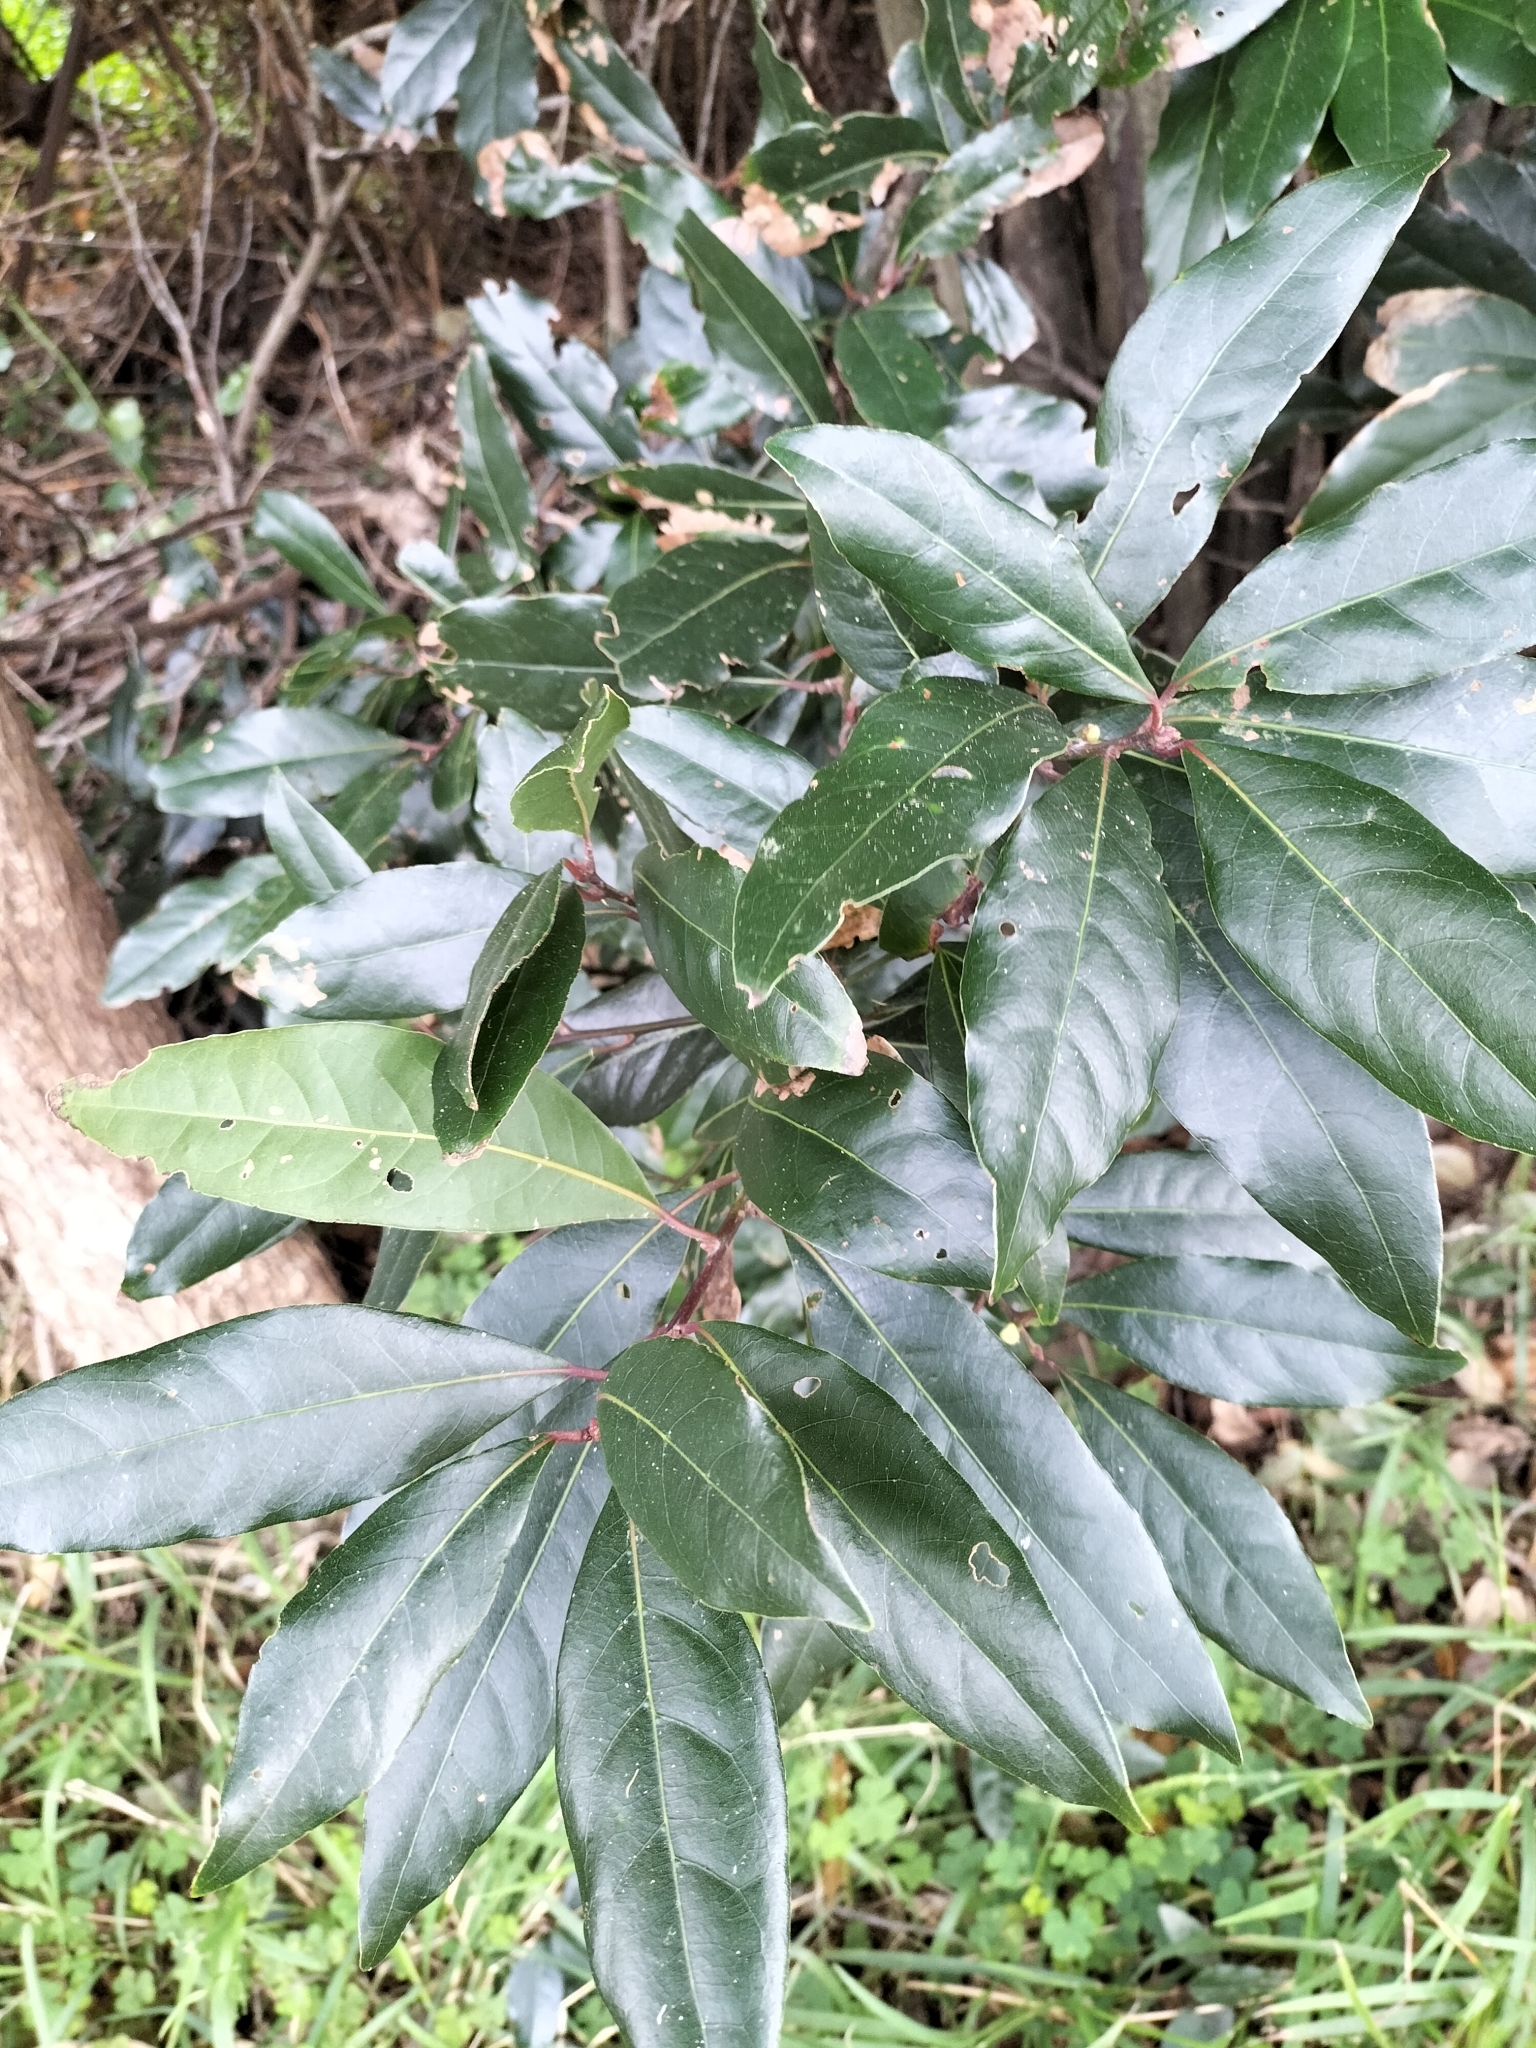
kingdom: Plantae
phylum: Tracheophyta
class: Magnoliopsida
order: Laurales
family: Lauraceae
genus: Laurus
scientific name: Laurus nobilis
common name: Bay
